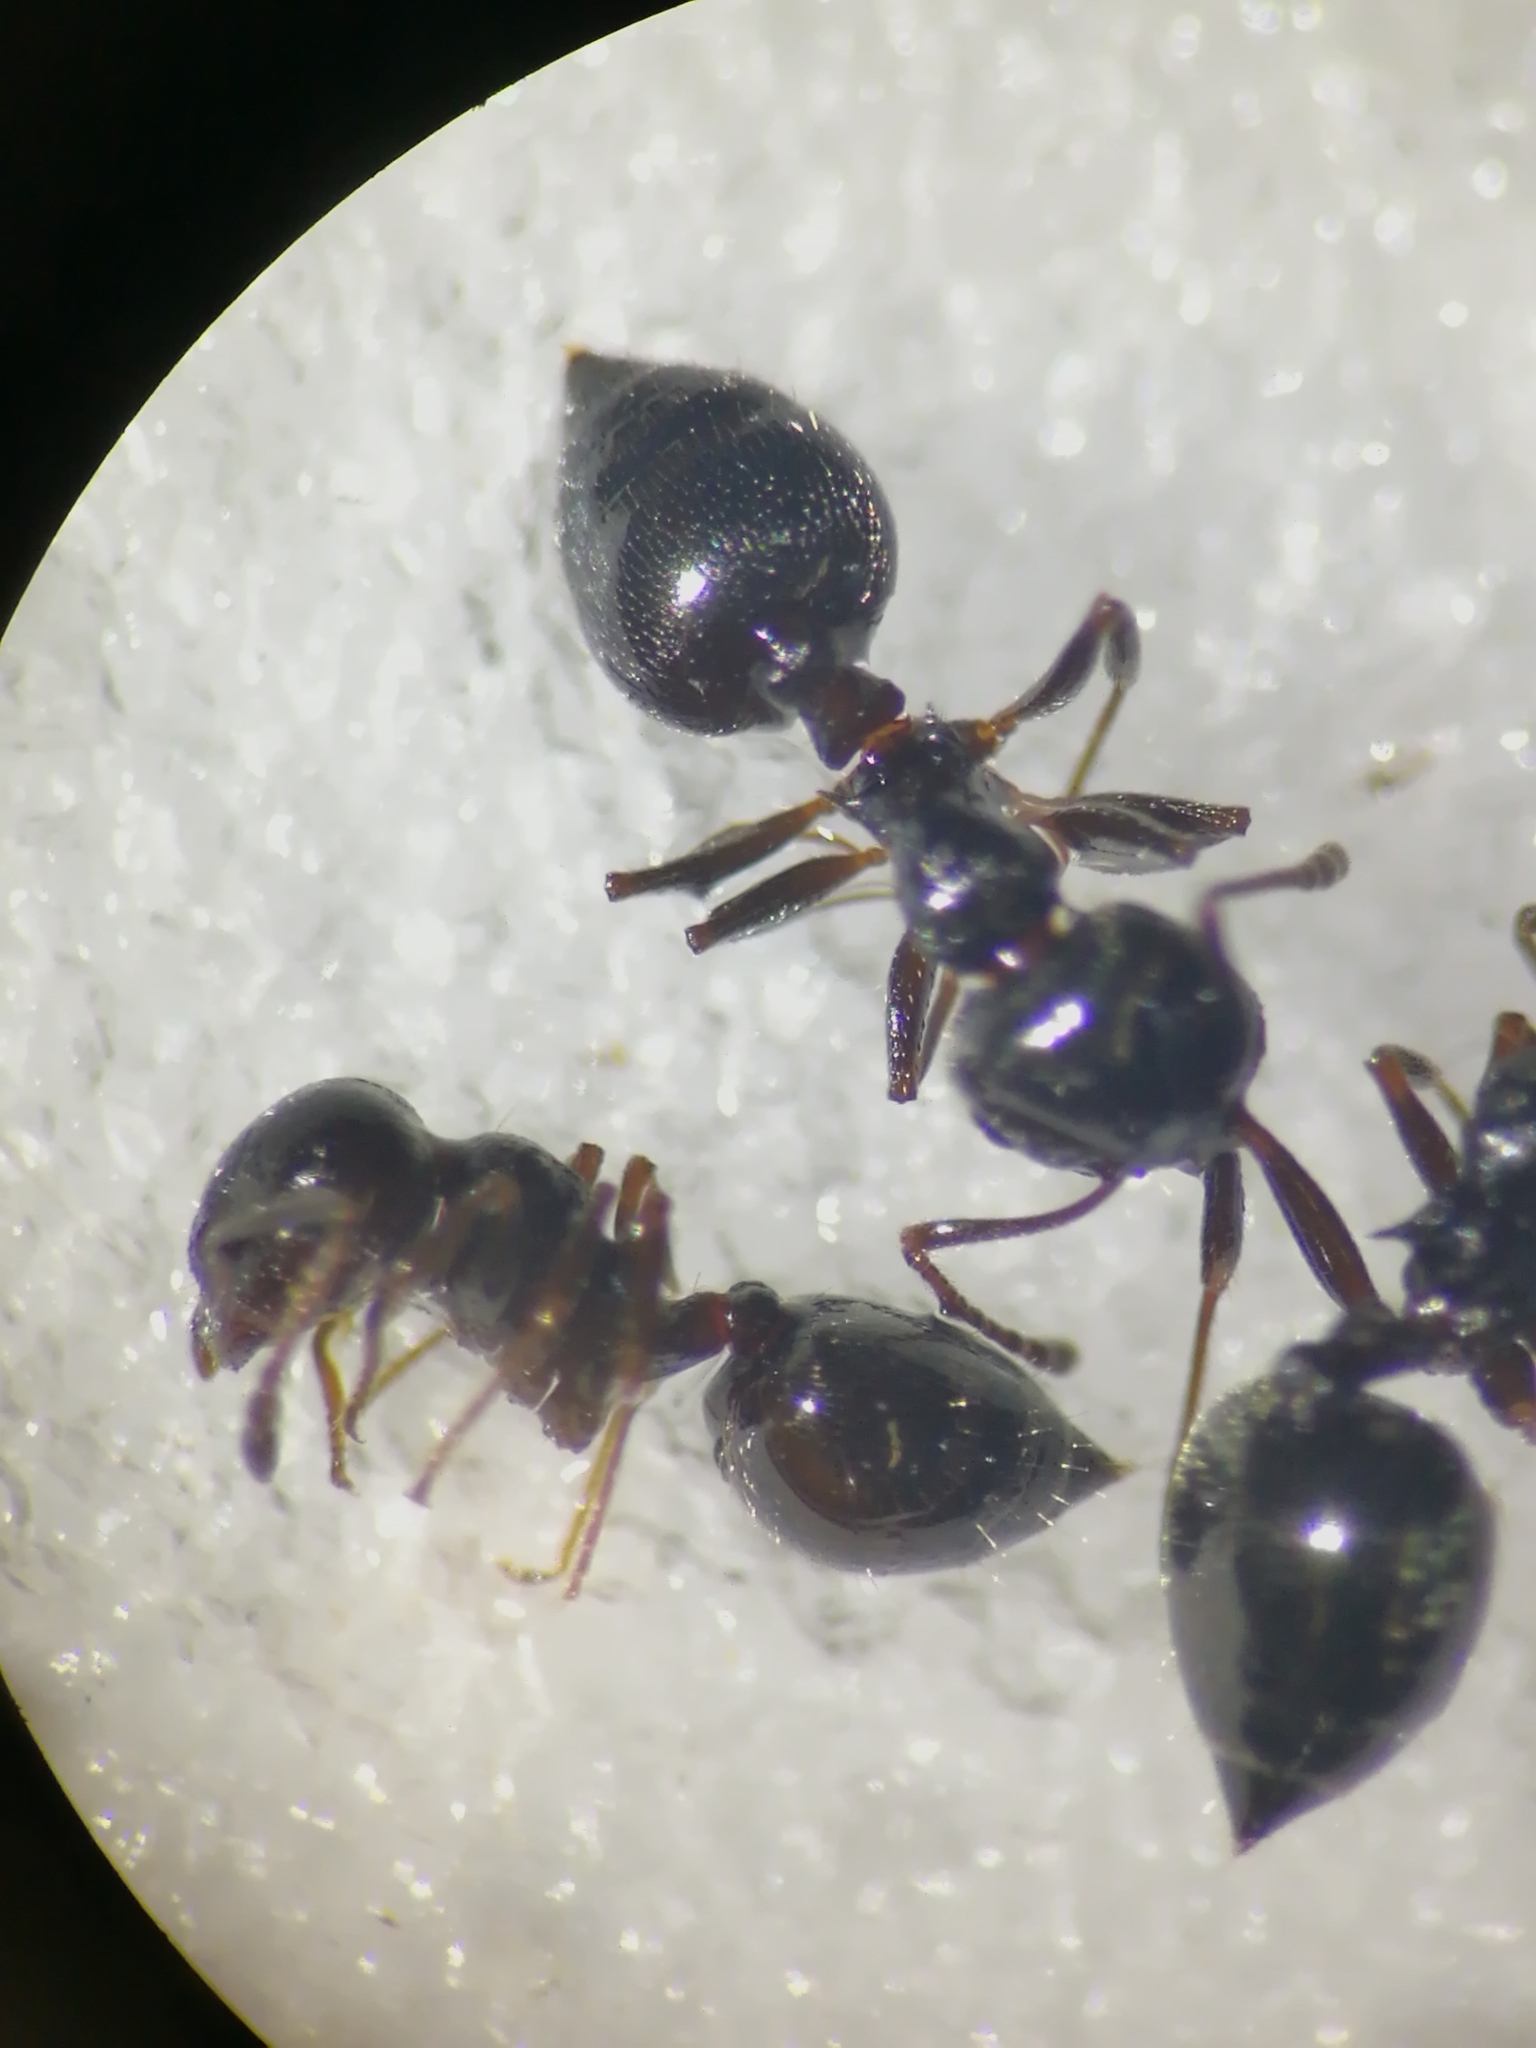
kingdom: Animalia
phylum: Arthropoda
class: Insecta
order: Hymenoptera
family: Formicidae
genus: Crematogaster
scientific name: Crematogaster auberti
